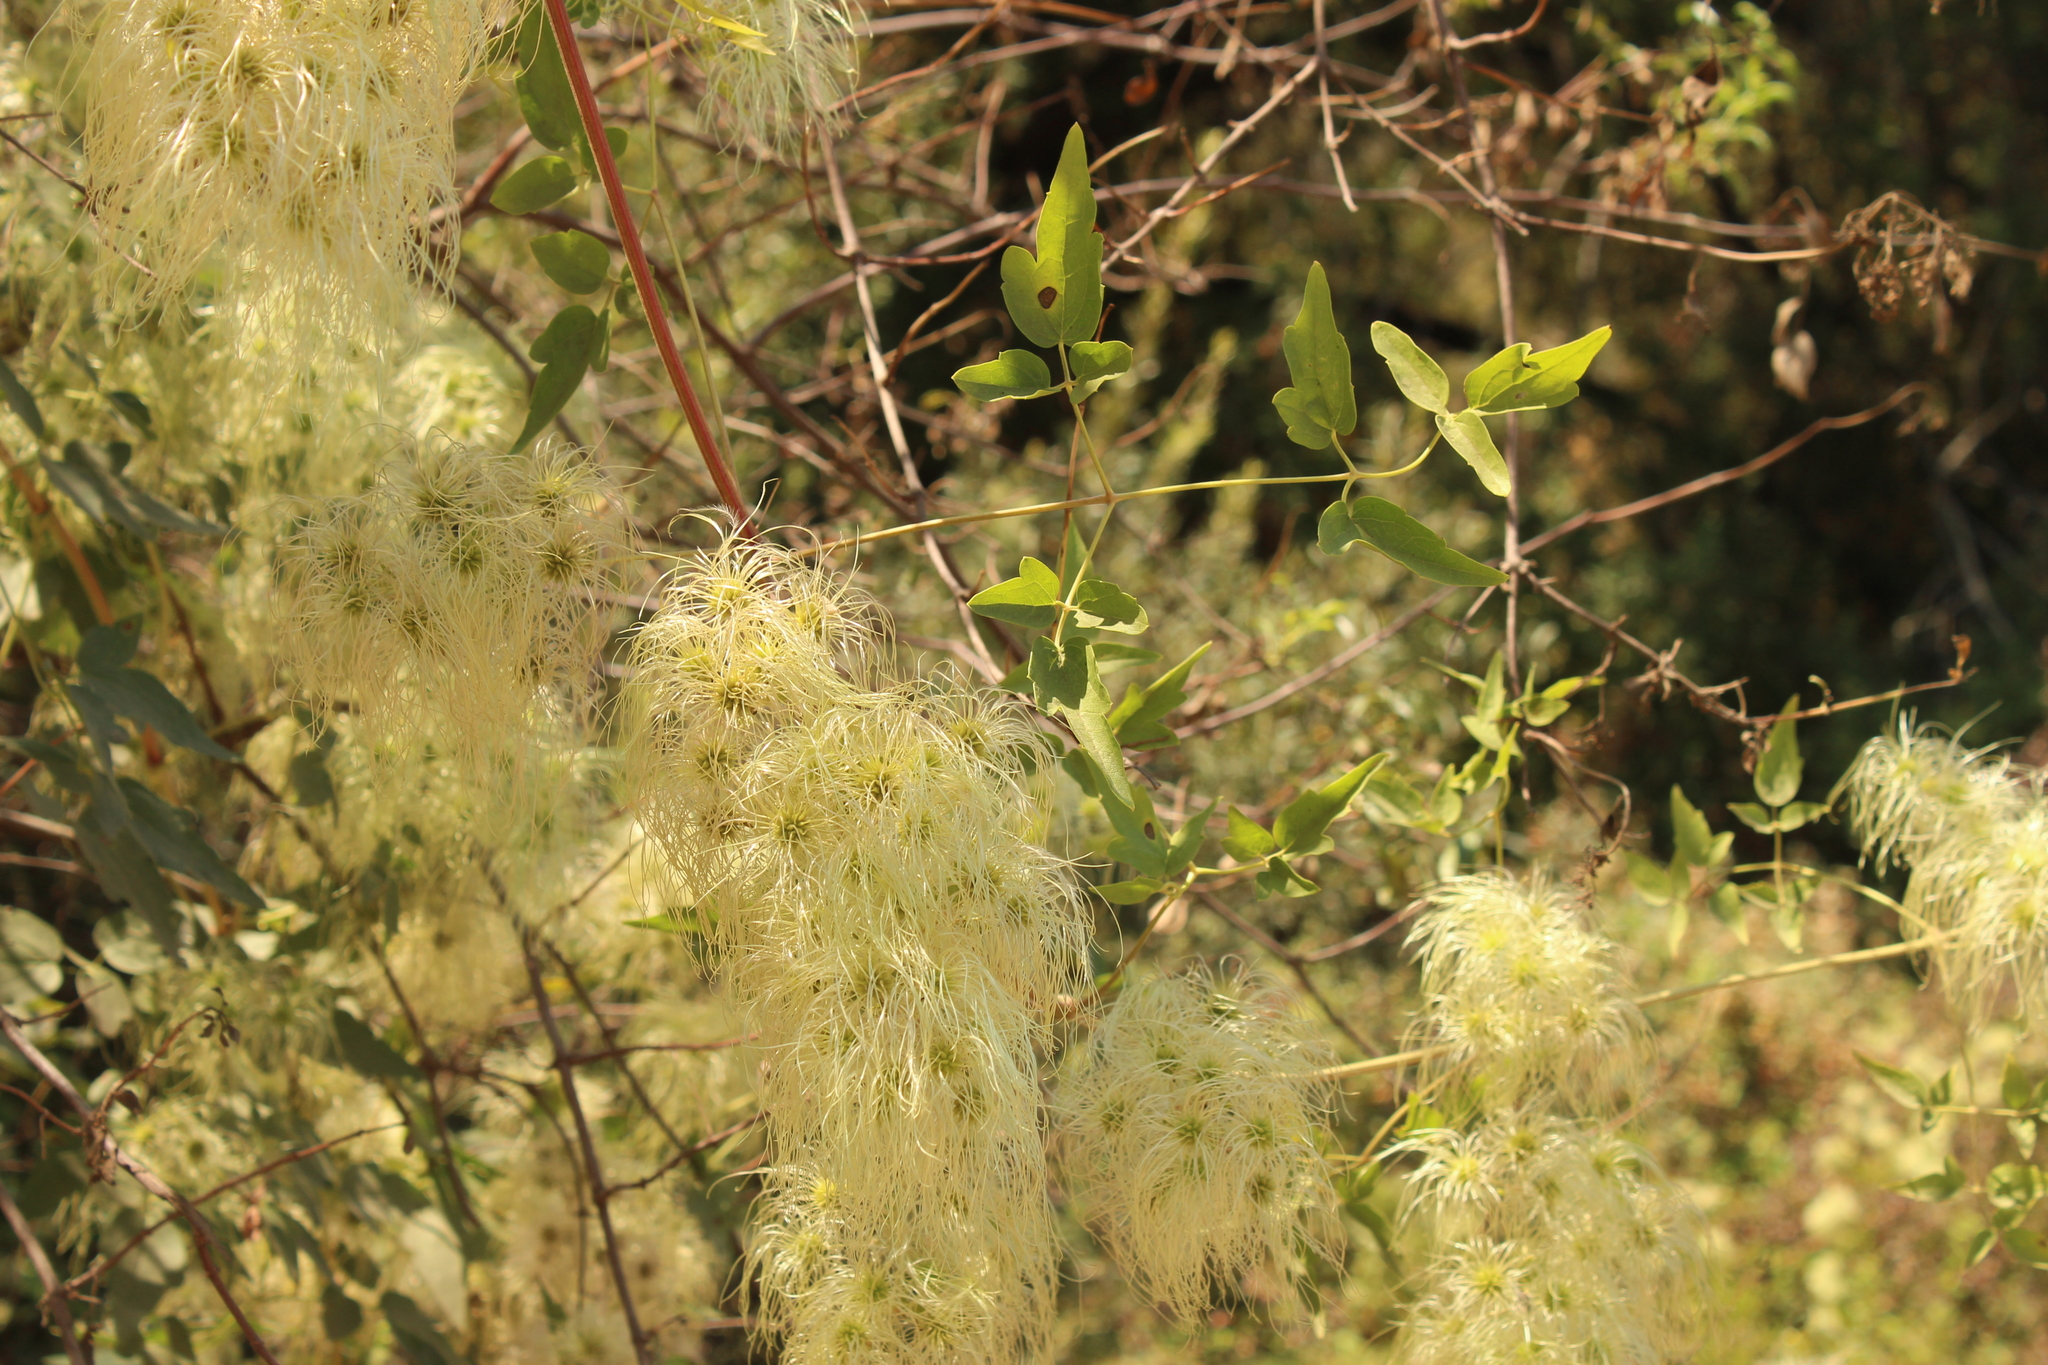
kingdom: Plantae
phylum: Tracheophyta
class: Magnoliopsida
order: Ranunculales
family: Ranunculaceae
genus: Clematis
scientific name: Clematis ligusticifolia
